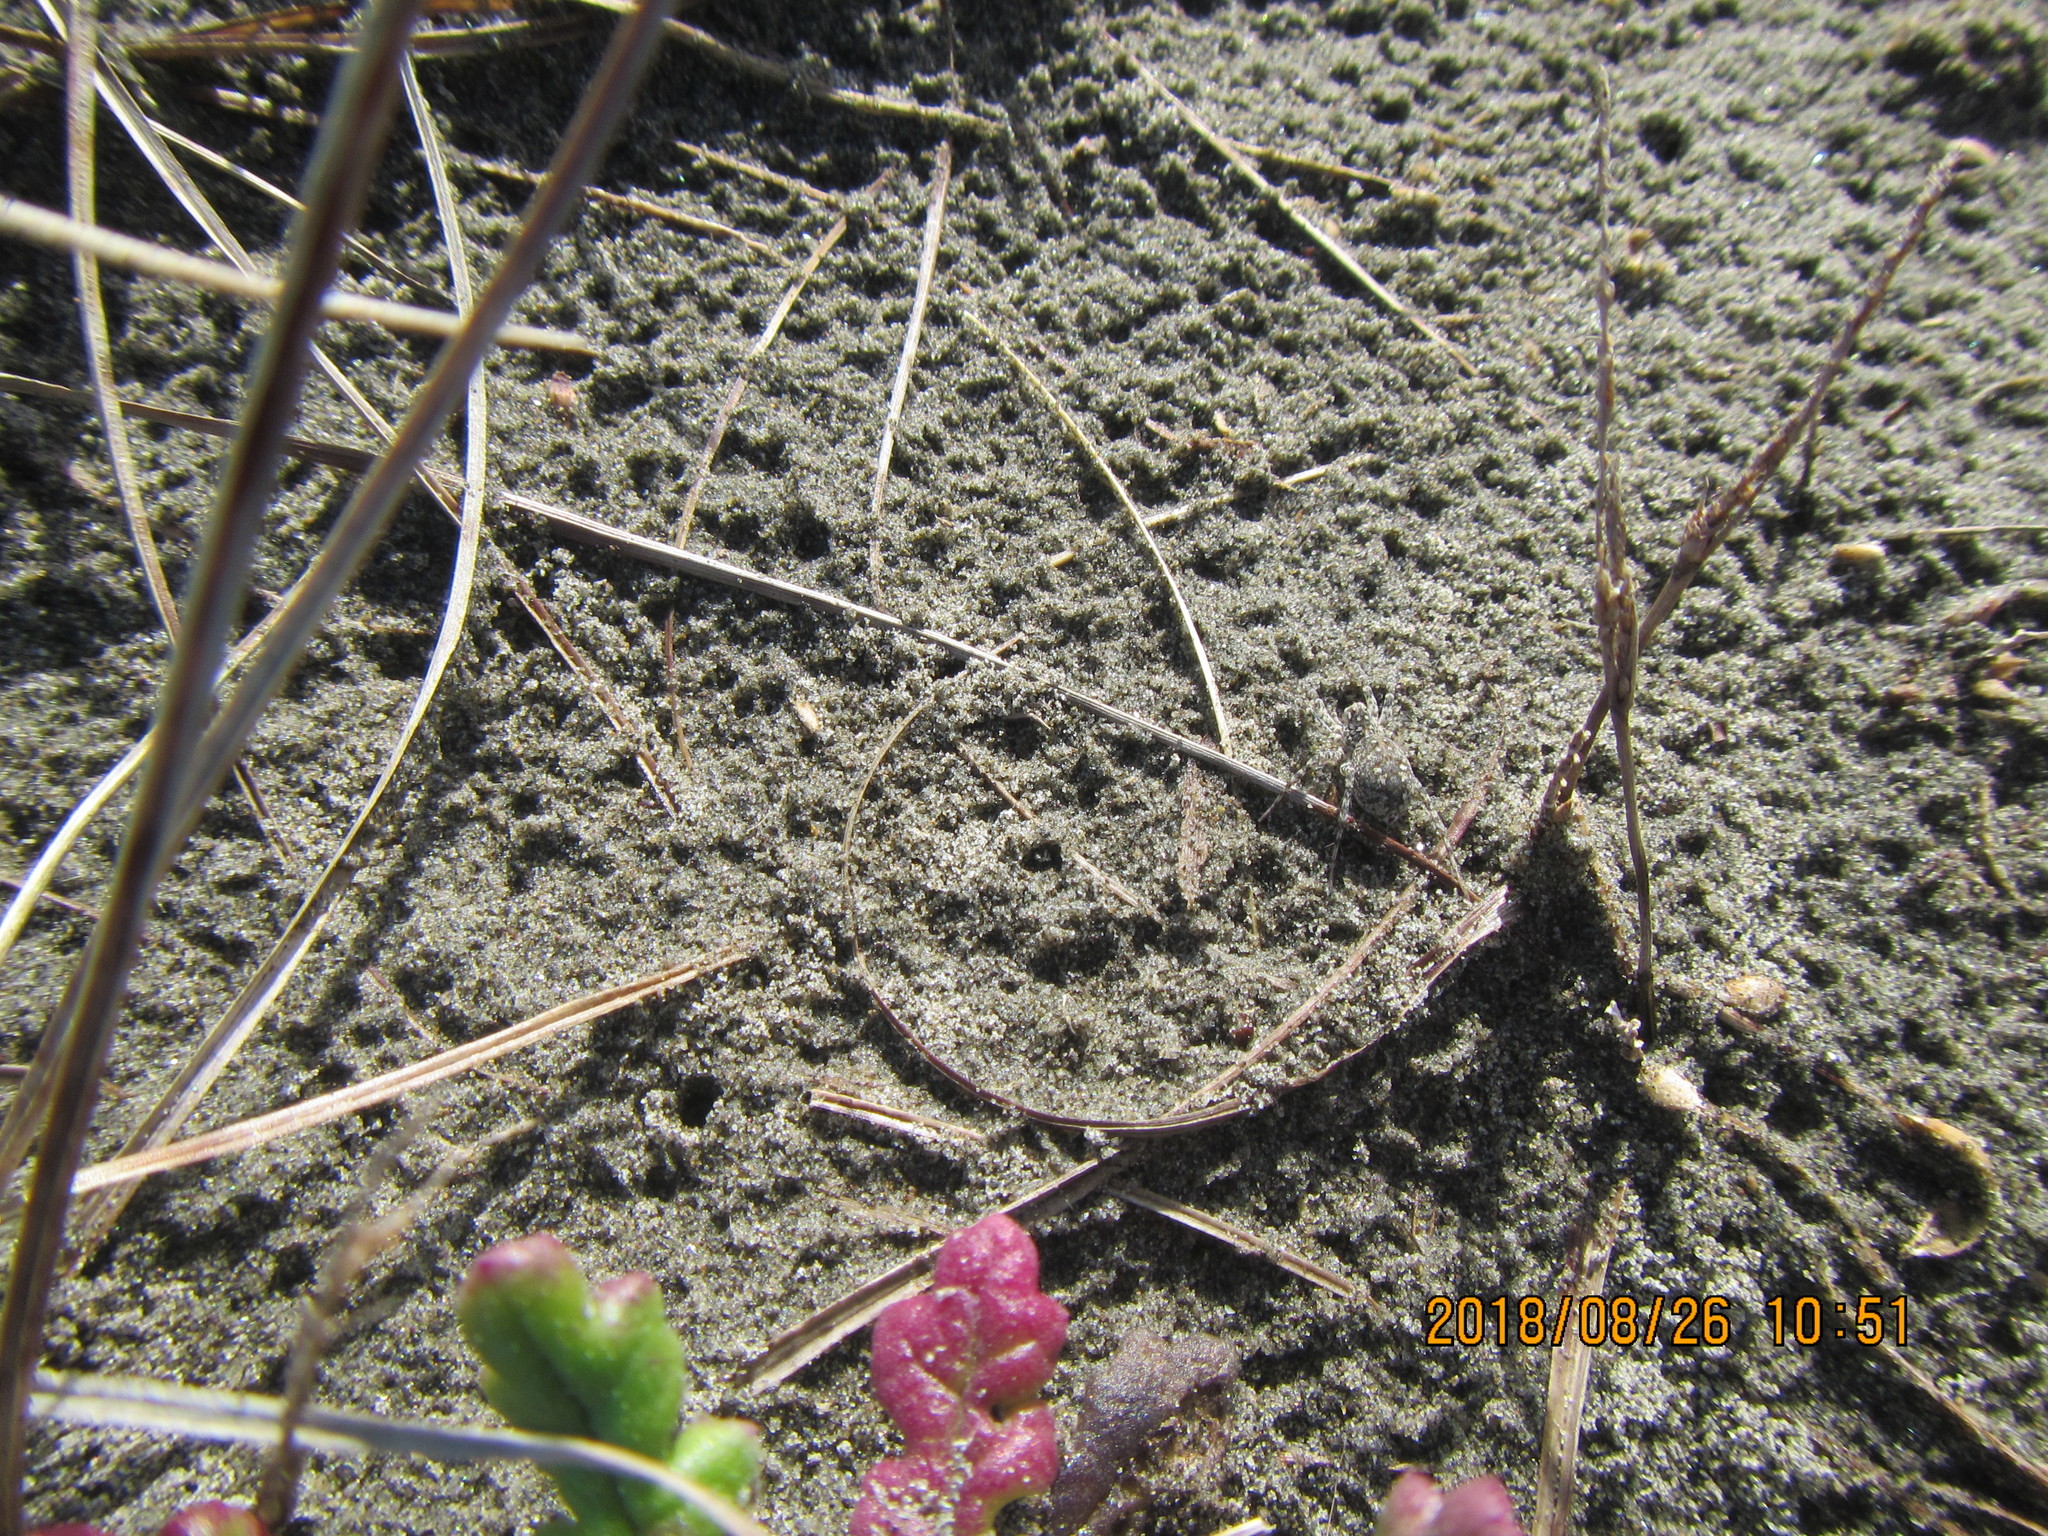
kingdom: Animalia
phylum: Arthropoda
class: Arachnida
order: Araneae
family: Lycosidae
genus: Anoteropsis
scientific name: Anoteropsis litoralis
